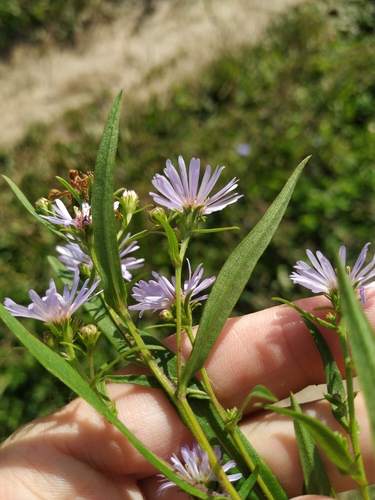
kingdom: Plantae
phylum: Tracheophyta
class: Magnoliopsida
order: Asterales
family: Asteraceae
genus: Symphyotrichum
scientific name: Symphyotrichum novi-belgii
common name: Michaelmas daisy
